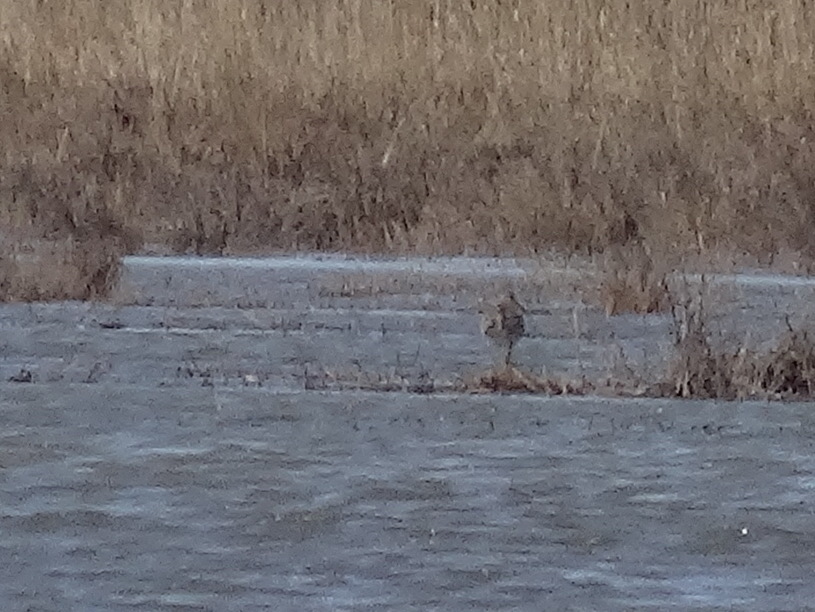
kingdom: Animalia
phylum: Chordata
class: Aves
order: Charadriiformes
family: Scolopacidae
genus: Numenius
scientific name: Numenius arquata
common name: Eurasian curlew
